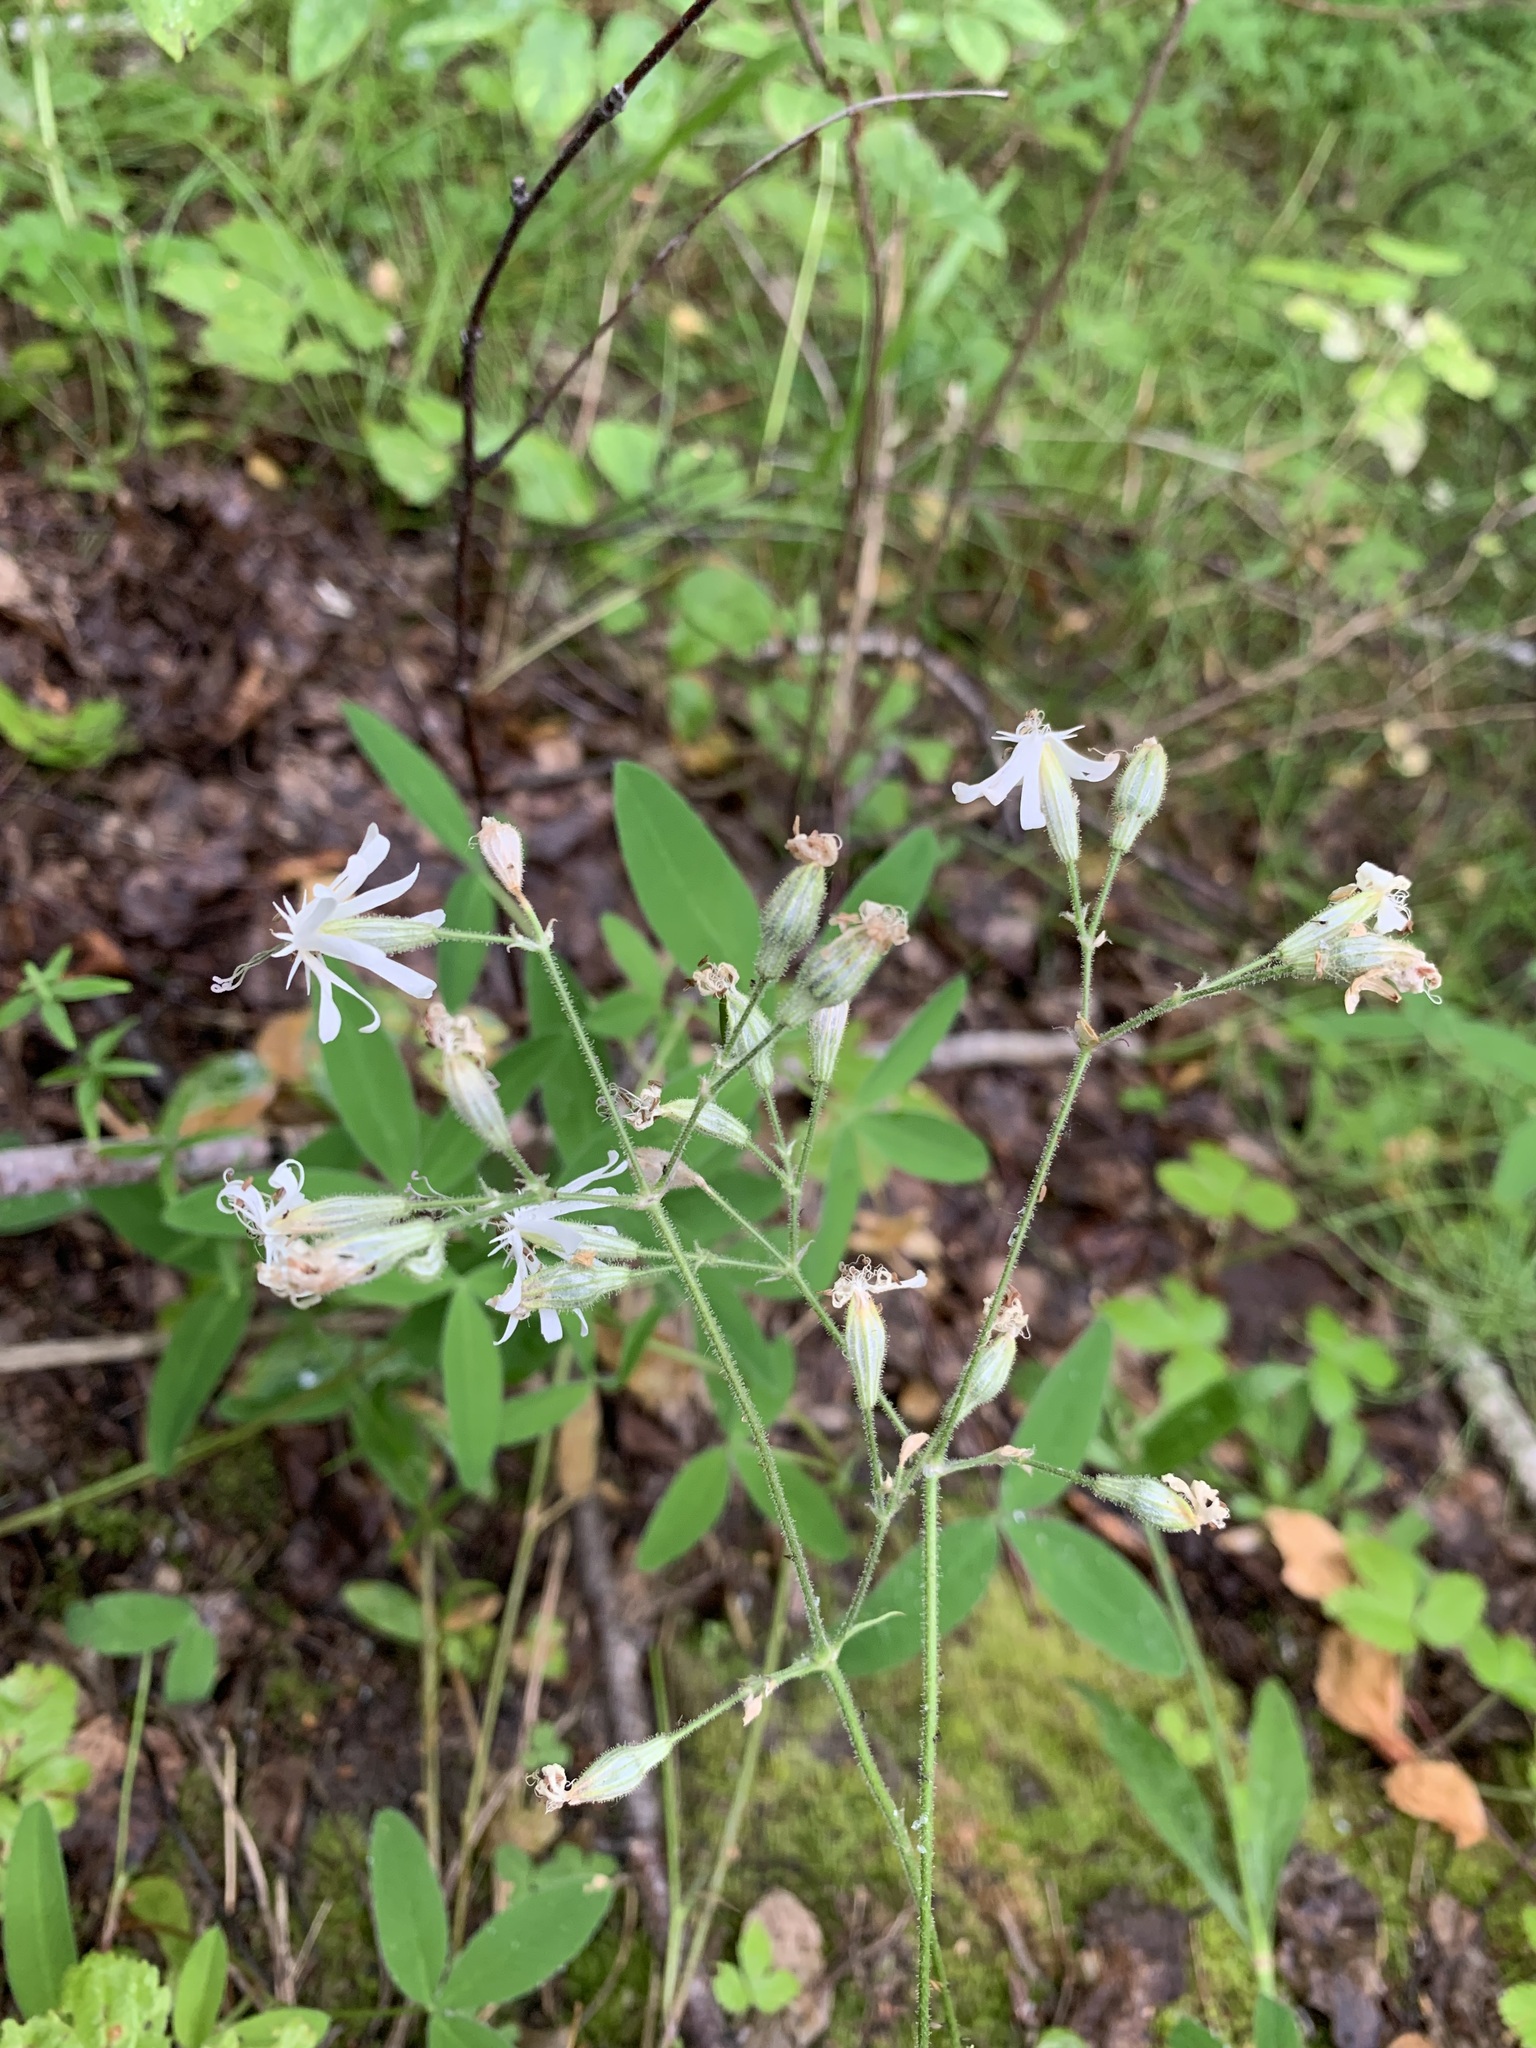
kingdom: Plantae
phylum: Tracheophyta
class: Magnoliopsida
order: Caryophyllales
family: Caryophyllaceae
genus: Silene
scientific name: Silene nutans
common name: Nottingham catchfly
